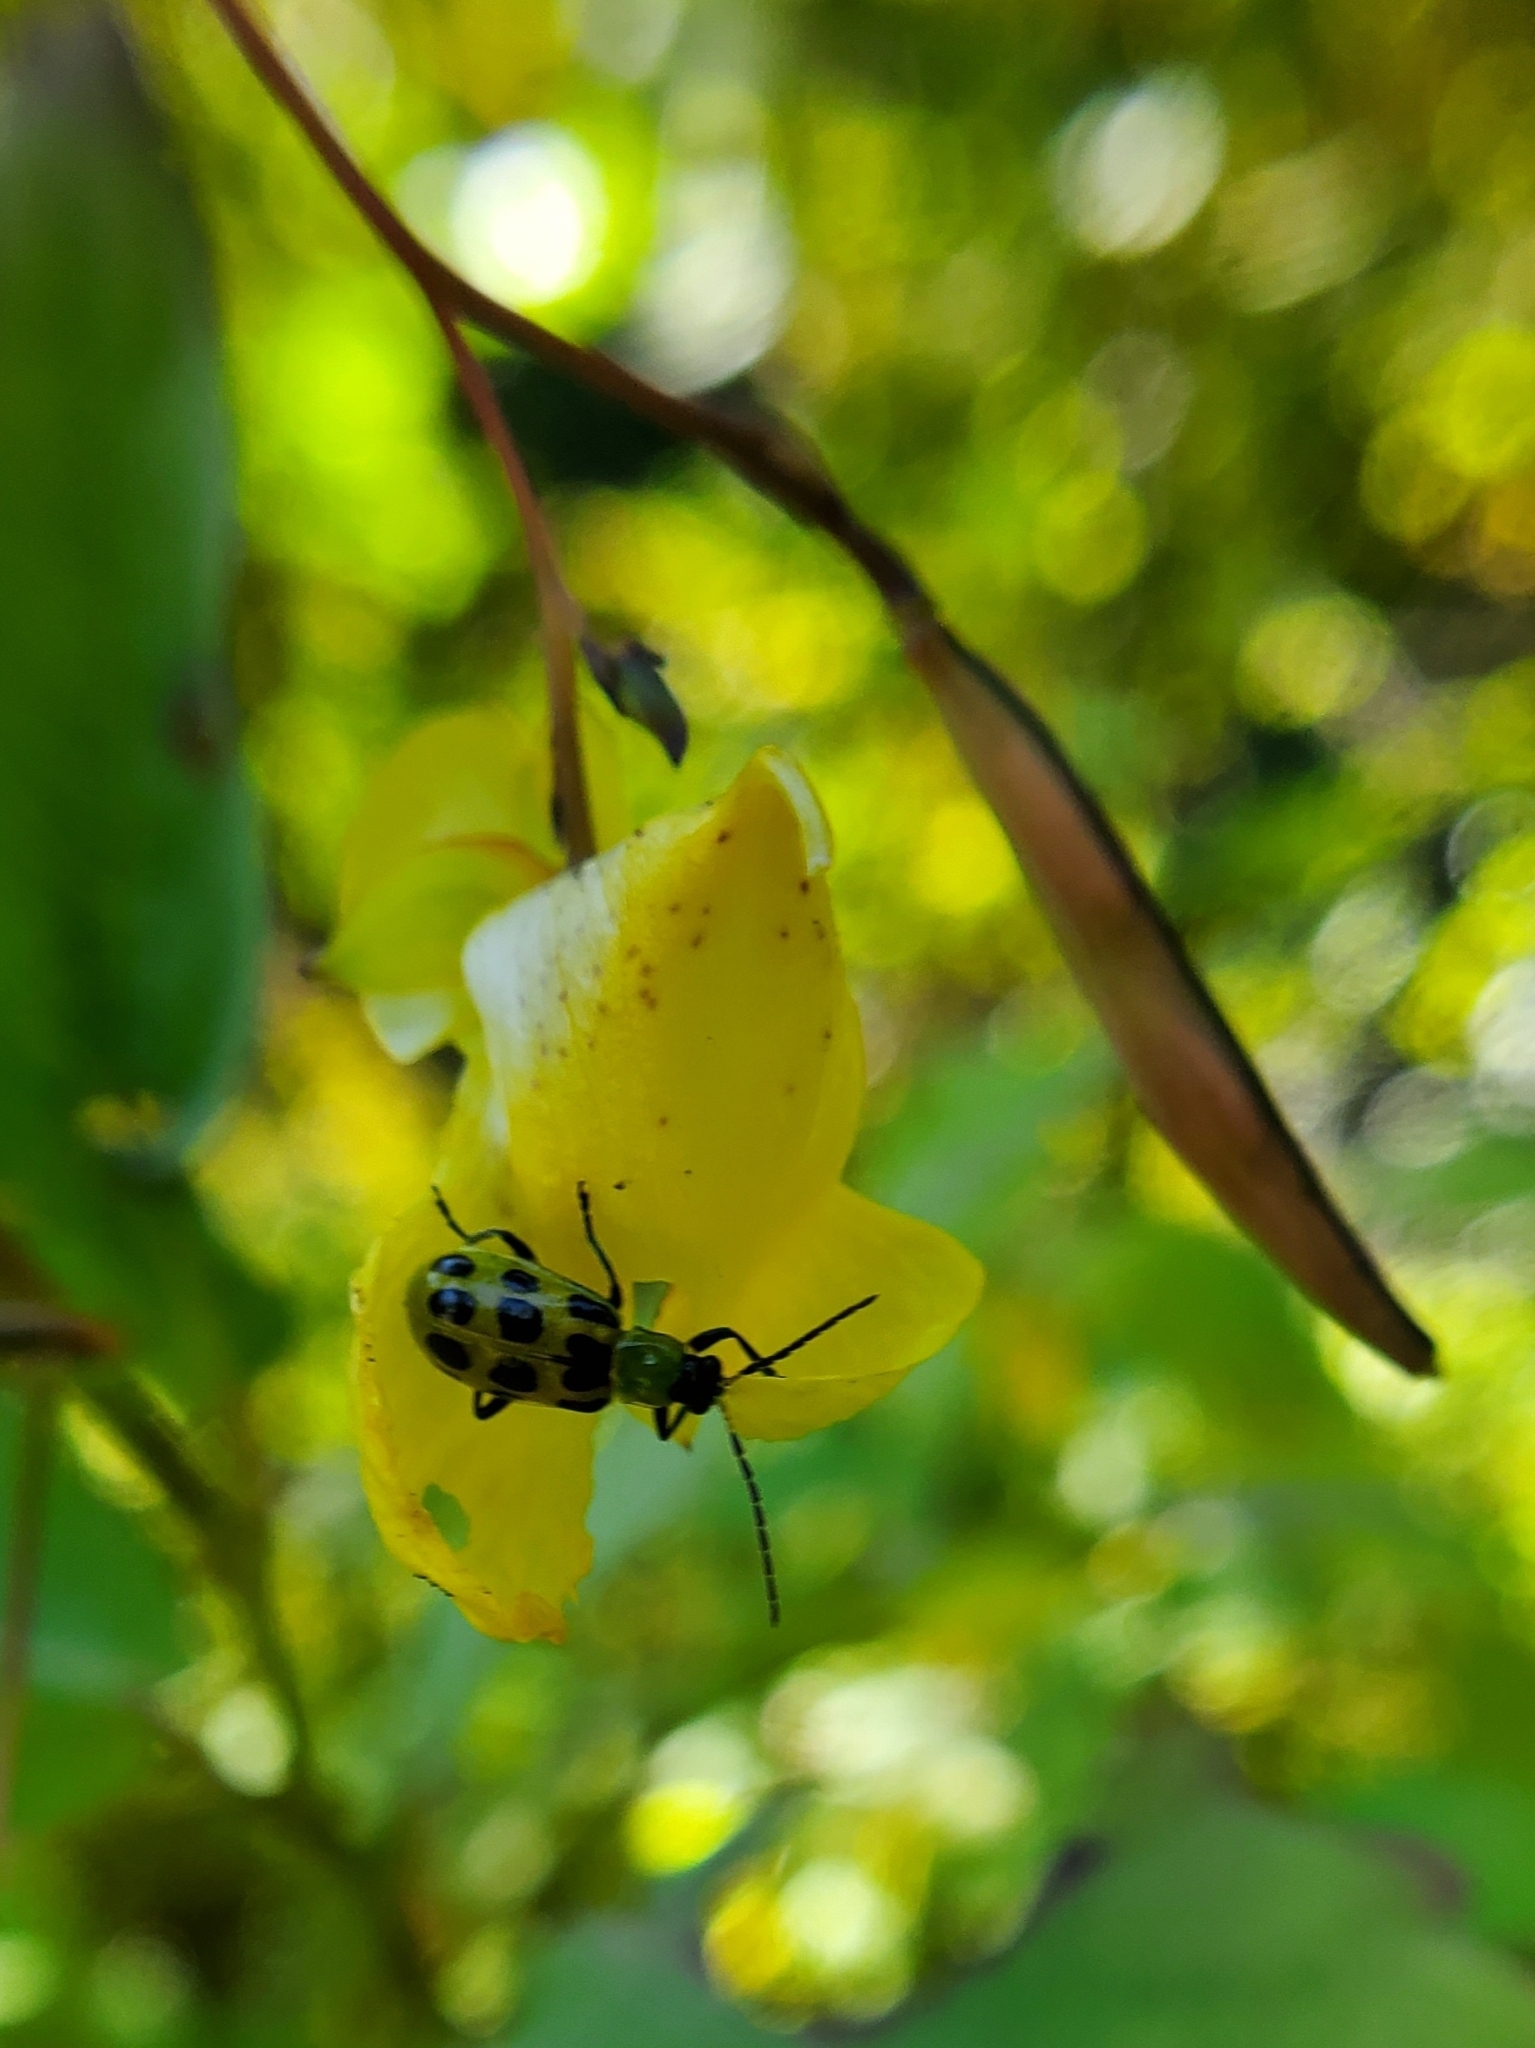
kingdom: Animalia
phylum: Arthropoda
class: Insecta
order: Coleoptera
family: Chrysomelidae
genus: Diabrotica
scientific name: Diabrotica undecimpunctata
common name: Spotted cucumber beetle
